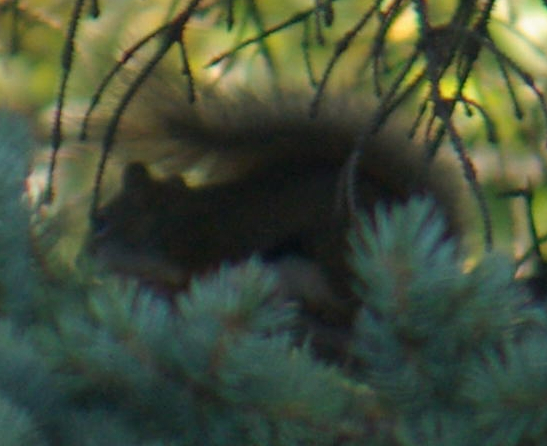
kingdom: Animalia
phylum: Chordata
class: Mammalia
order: Rodentia
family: Sciuridae
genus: Tamiasciurus
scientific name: Tamiasciurus hudsonicus
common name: Red squirrel
